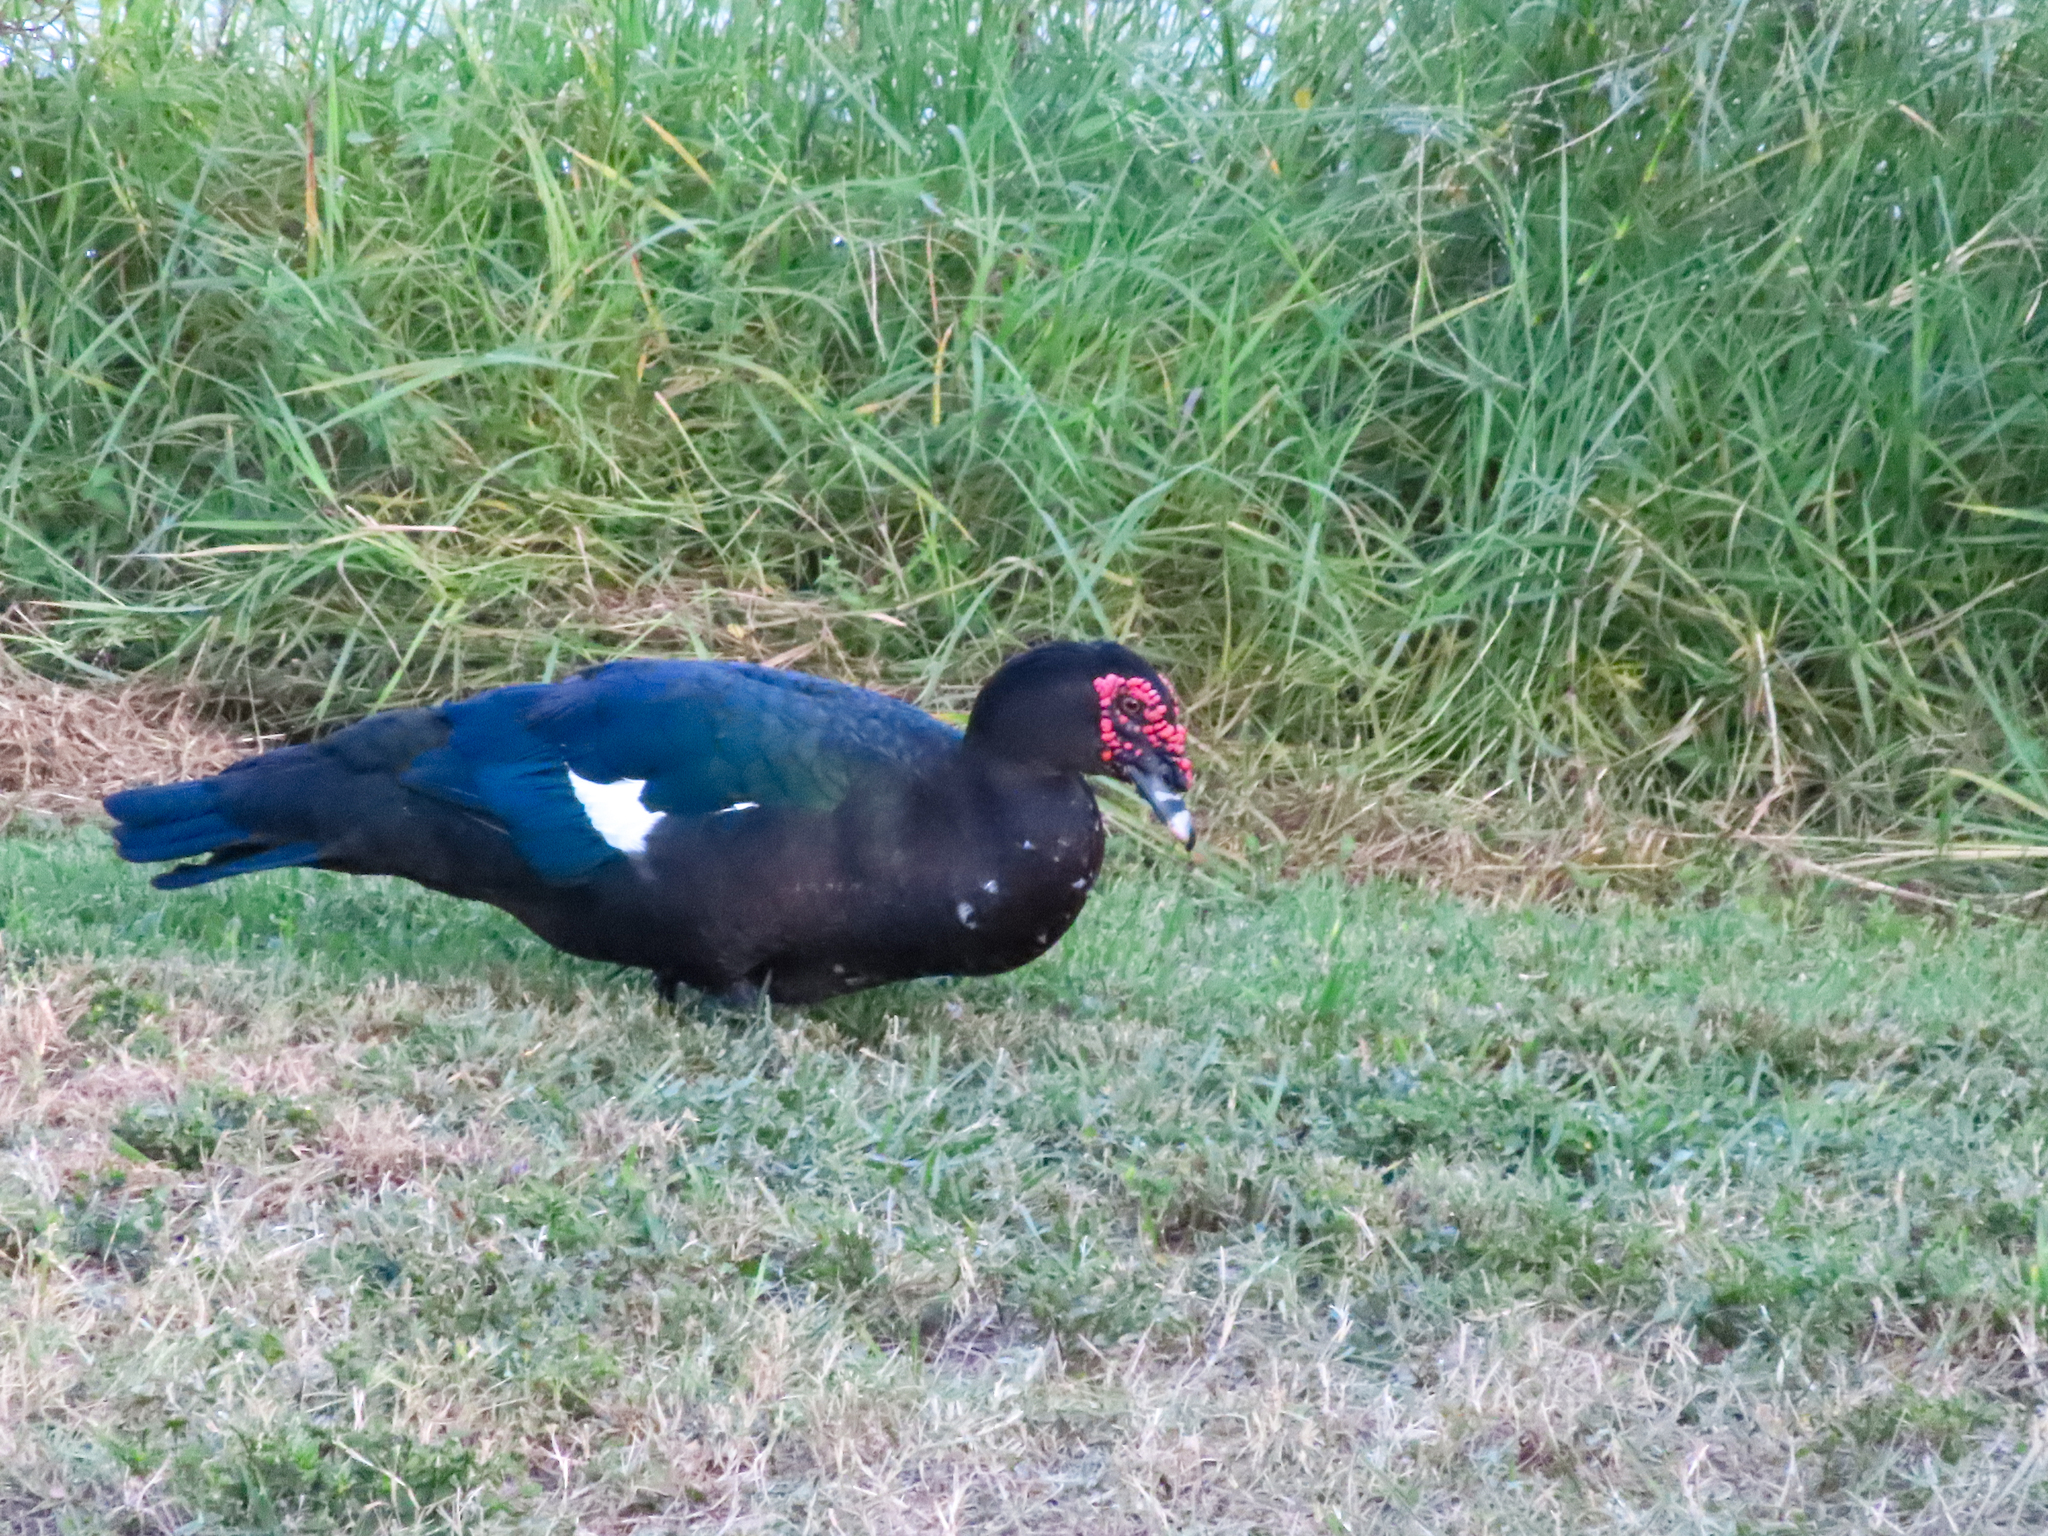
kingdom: Animalia
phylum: Chordata
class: Aves
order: Anseriformes
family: Anatidae
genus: Cairina
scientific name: Cairina moschata
